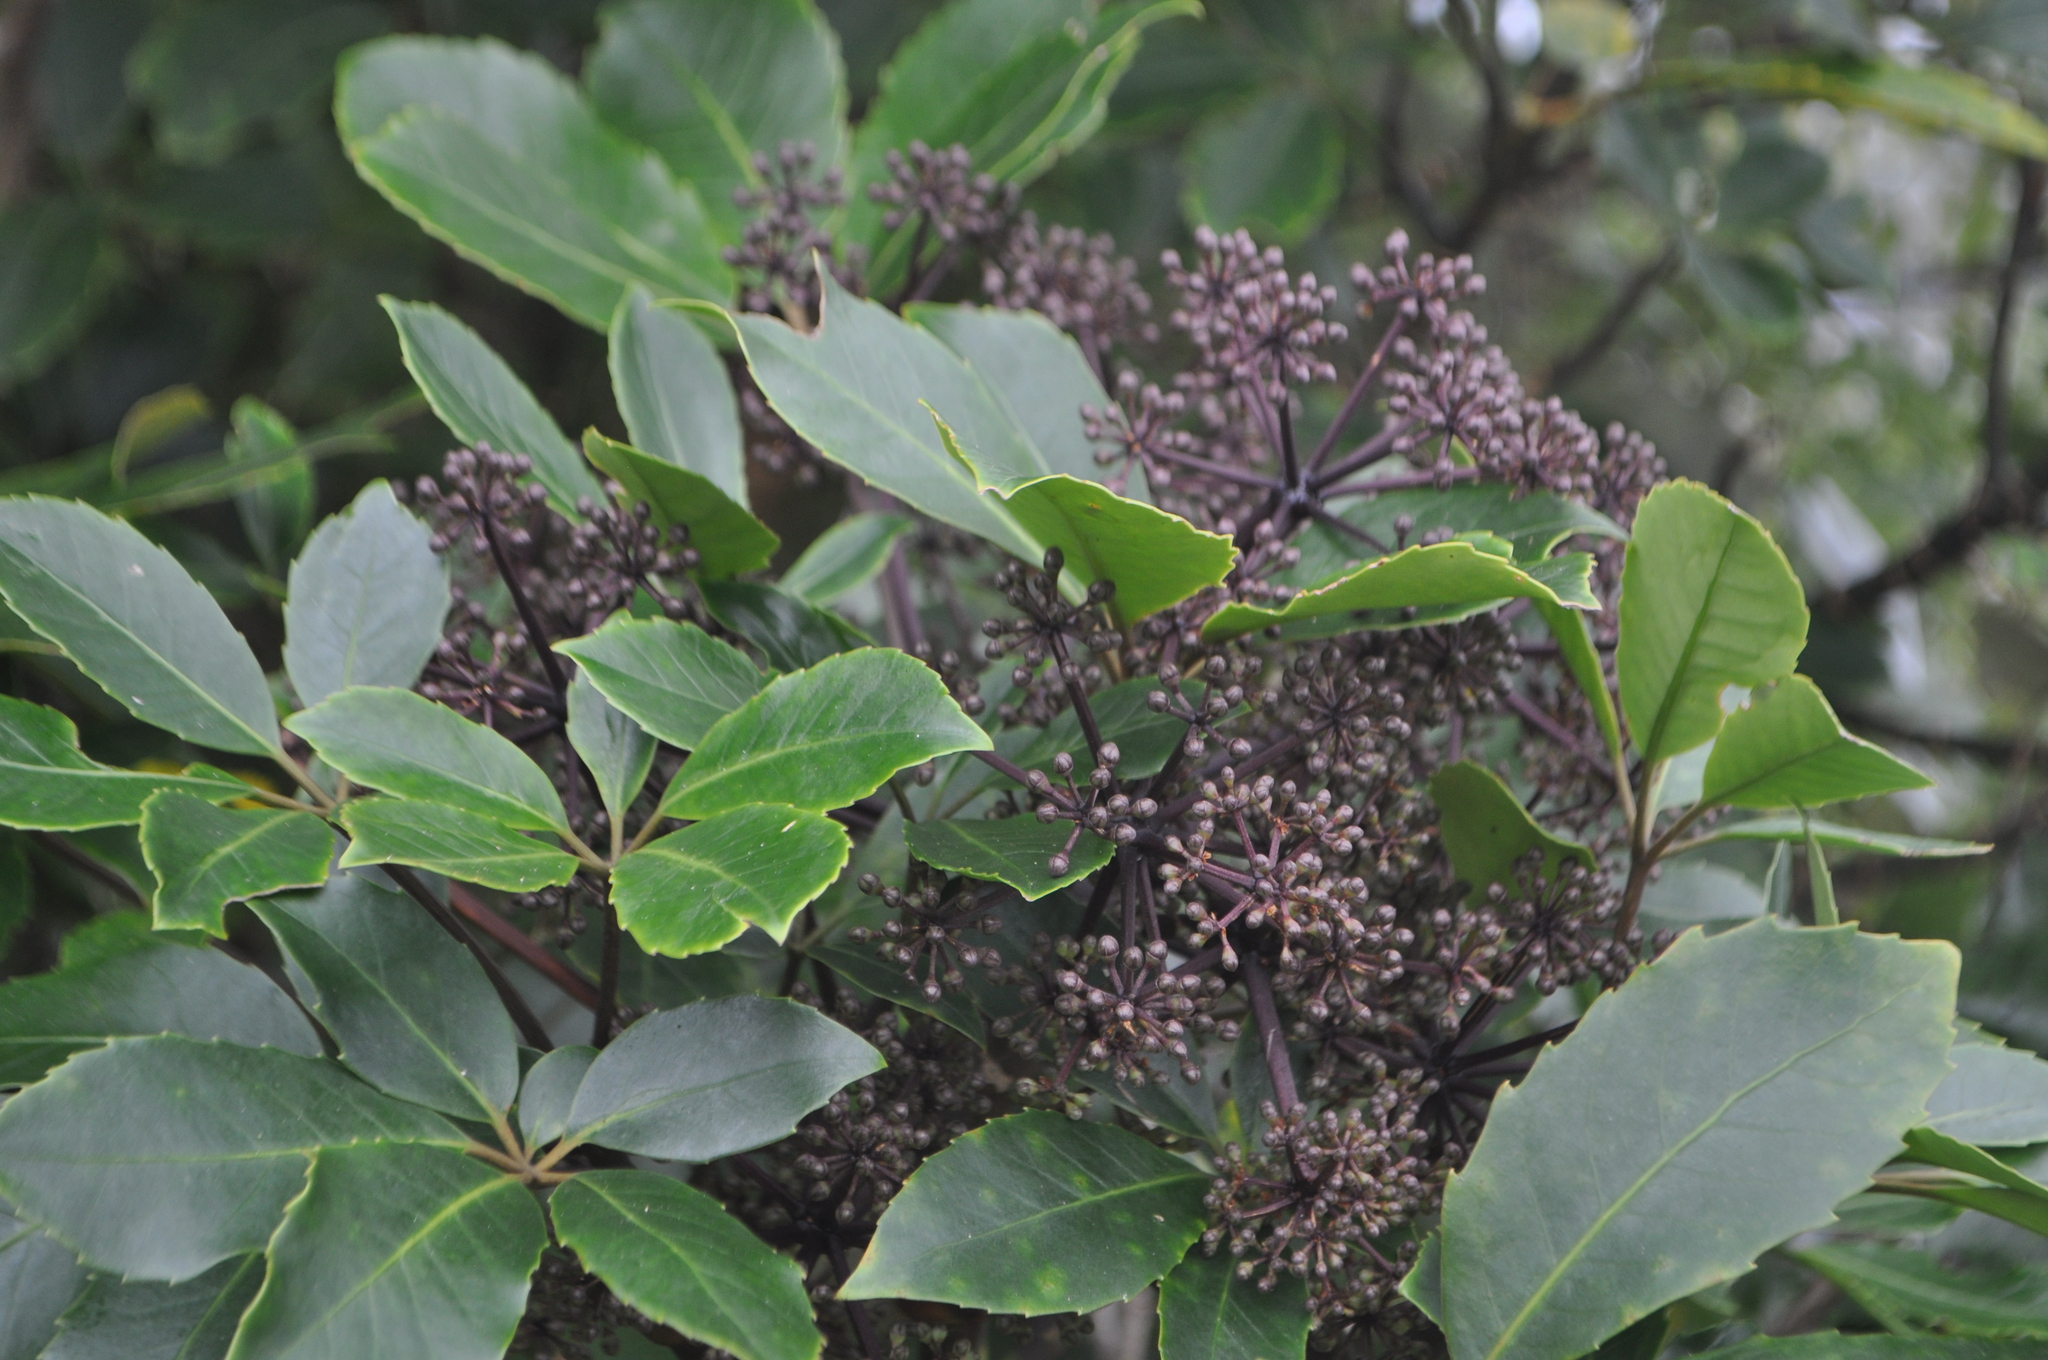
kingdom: Plantae
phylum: Tracheophyta
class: Magnoliopsida
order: Apiales
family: Araliaceae
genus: Neopanax
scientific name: Neopanax arboreus
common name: Five-fingers
